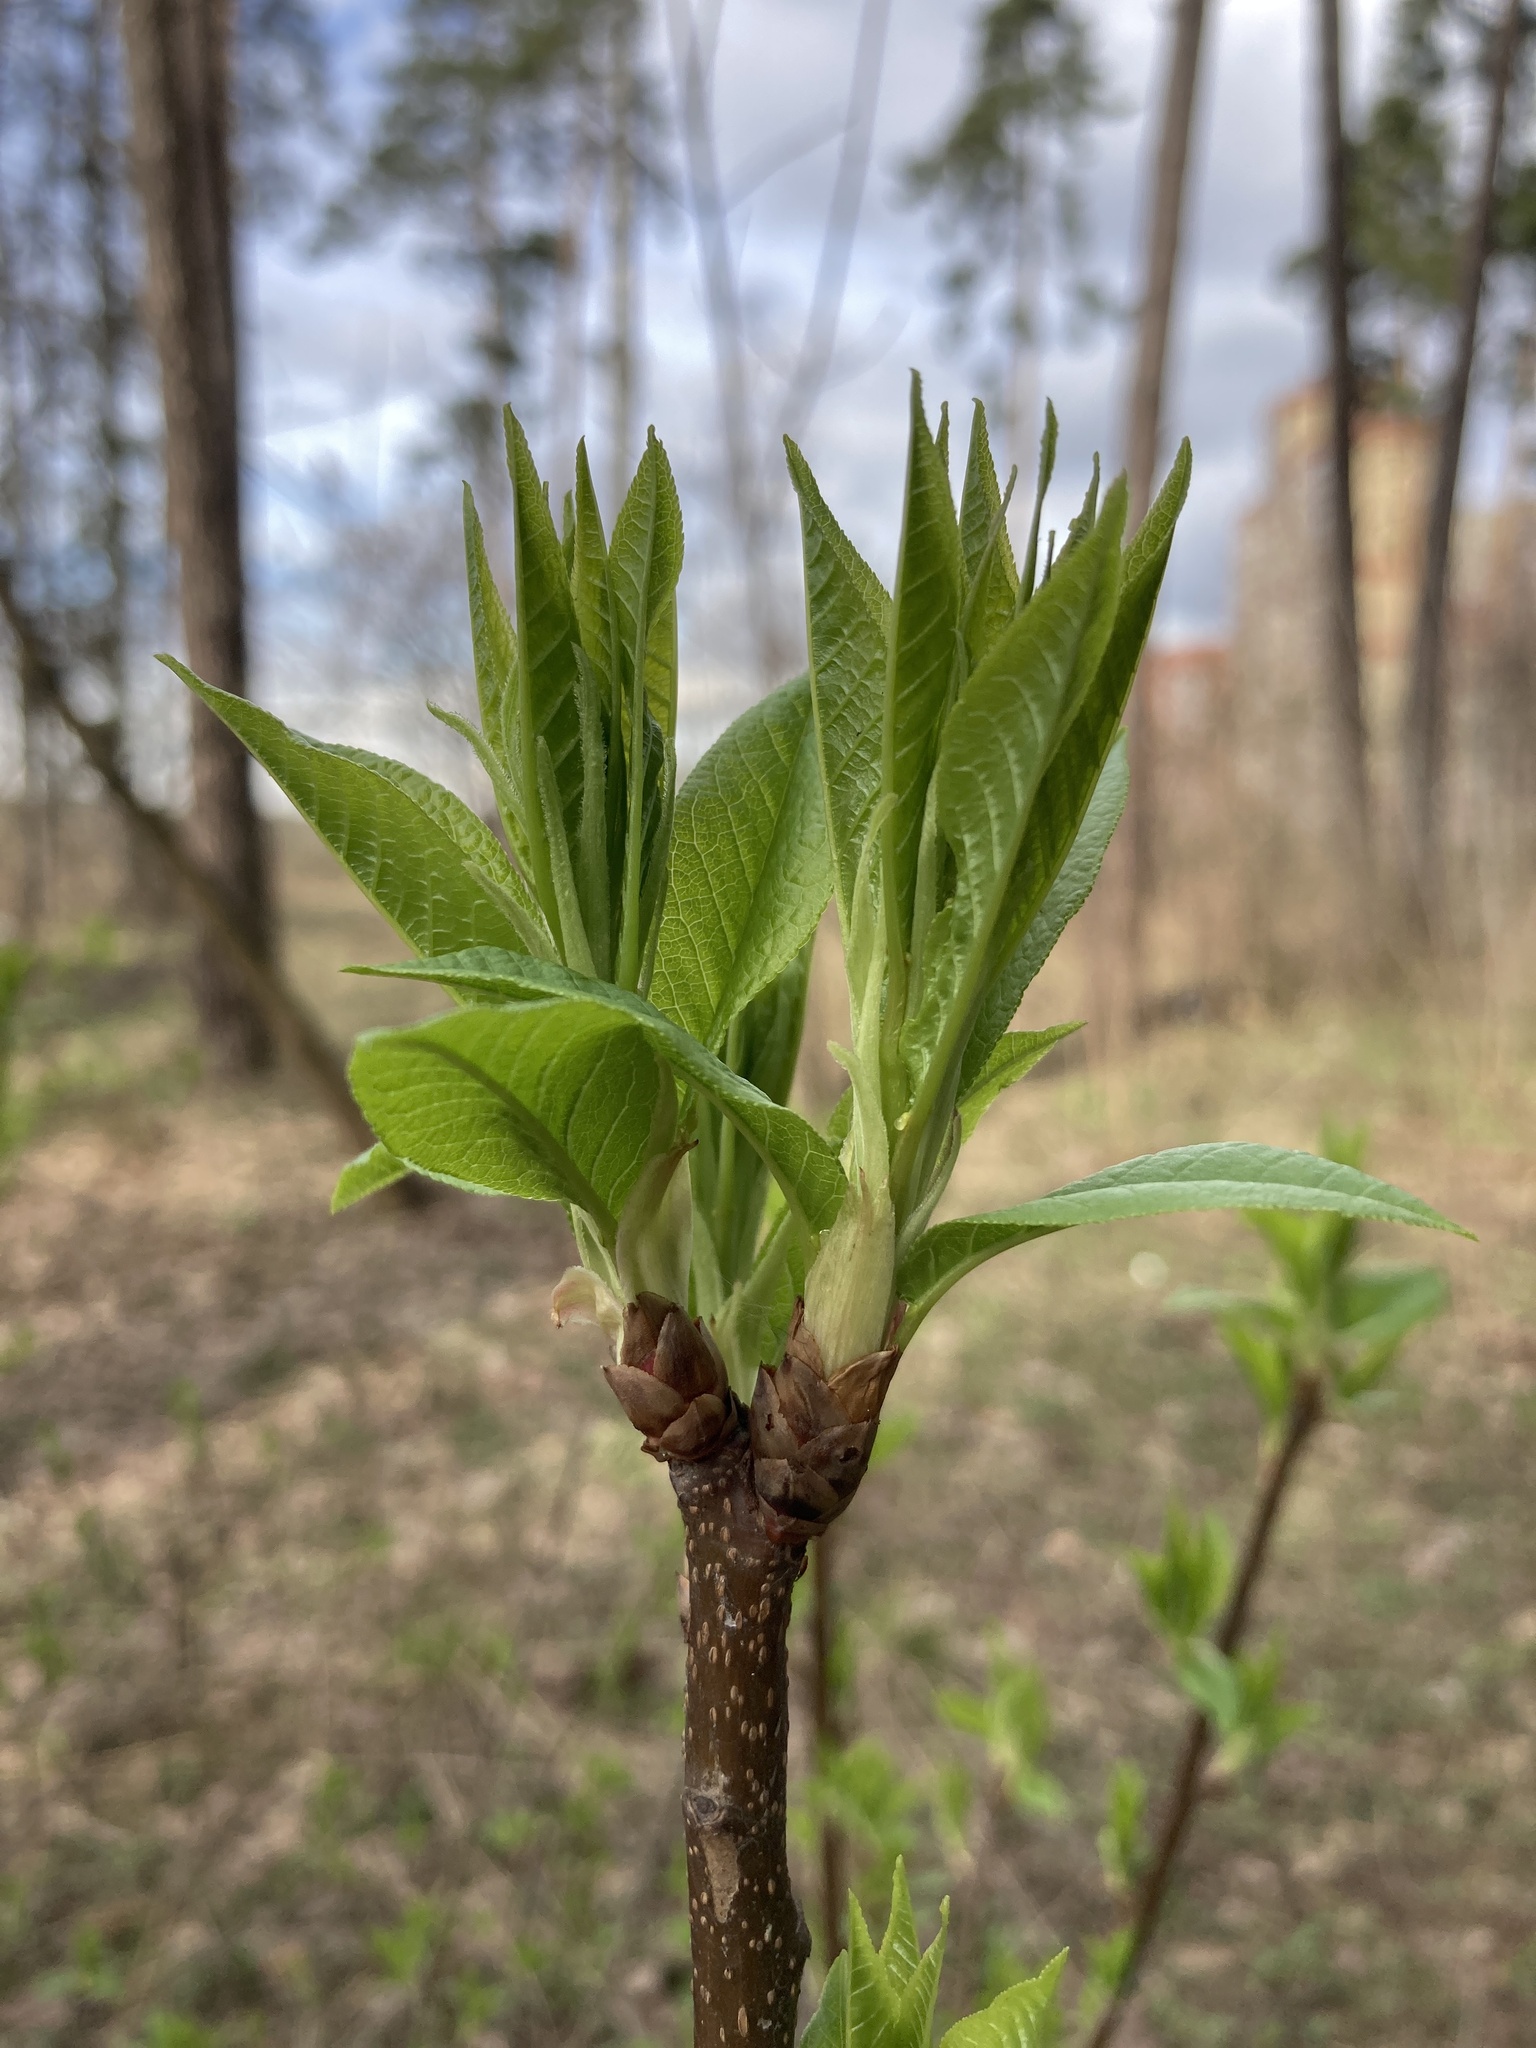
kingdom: Plantae
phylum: Tracheophyta
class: Magnoliopsida
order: Rosales
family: Rosaceae
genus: Prunus
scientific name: Prunus padus
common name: Bird cherry
